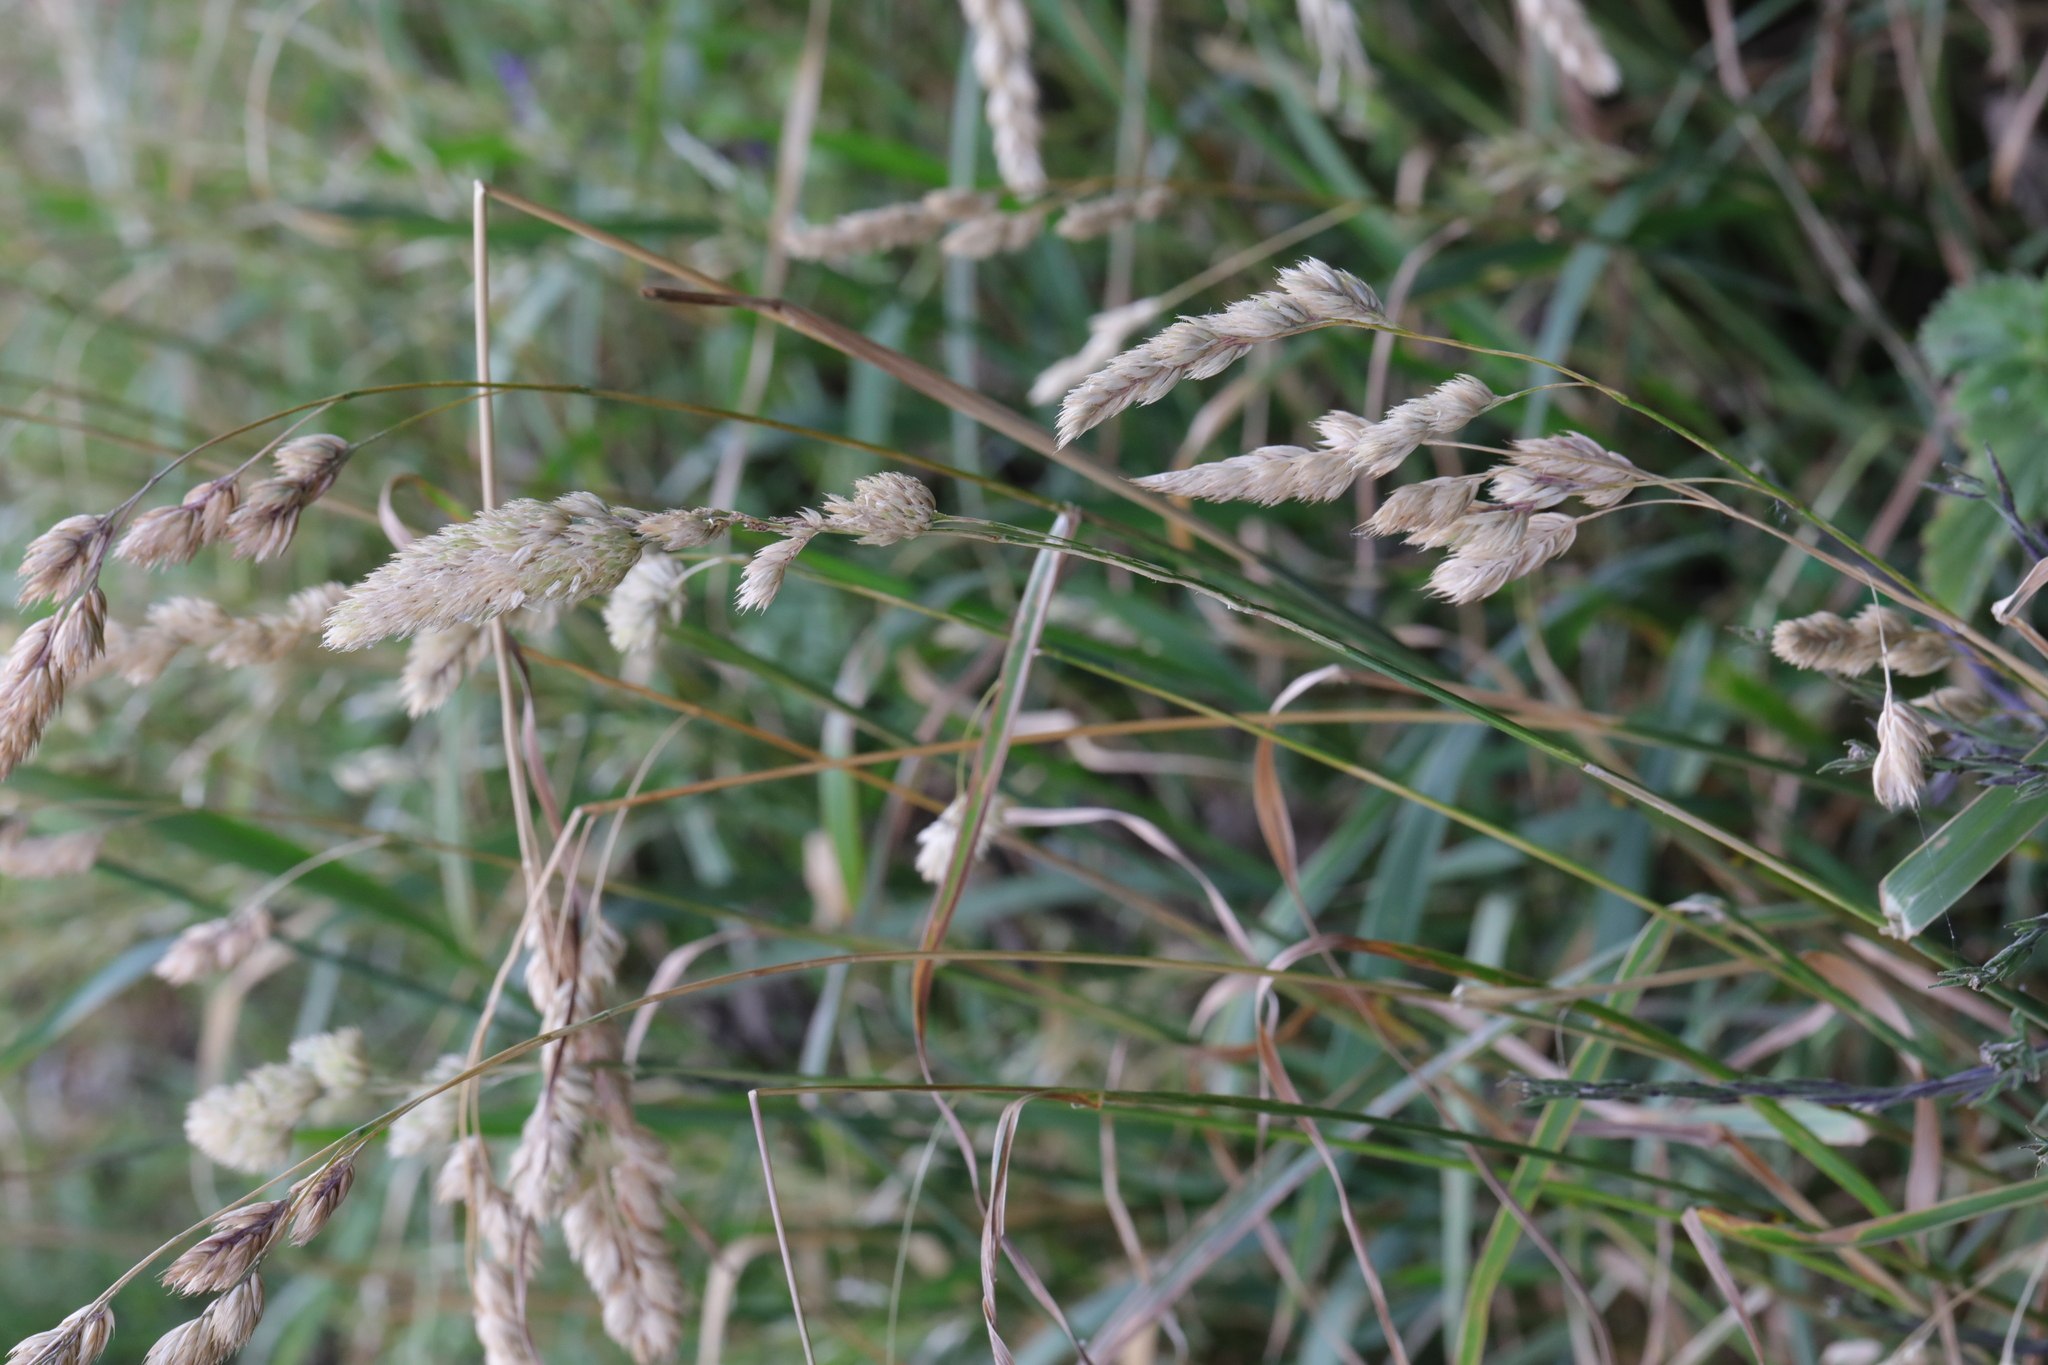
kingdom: Plantae
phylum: Tracheophyta
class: Liliopsida
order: Poales
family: Poaceae
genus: Dactylis
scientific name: Dactylis glomerata
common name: Orchardgrass
